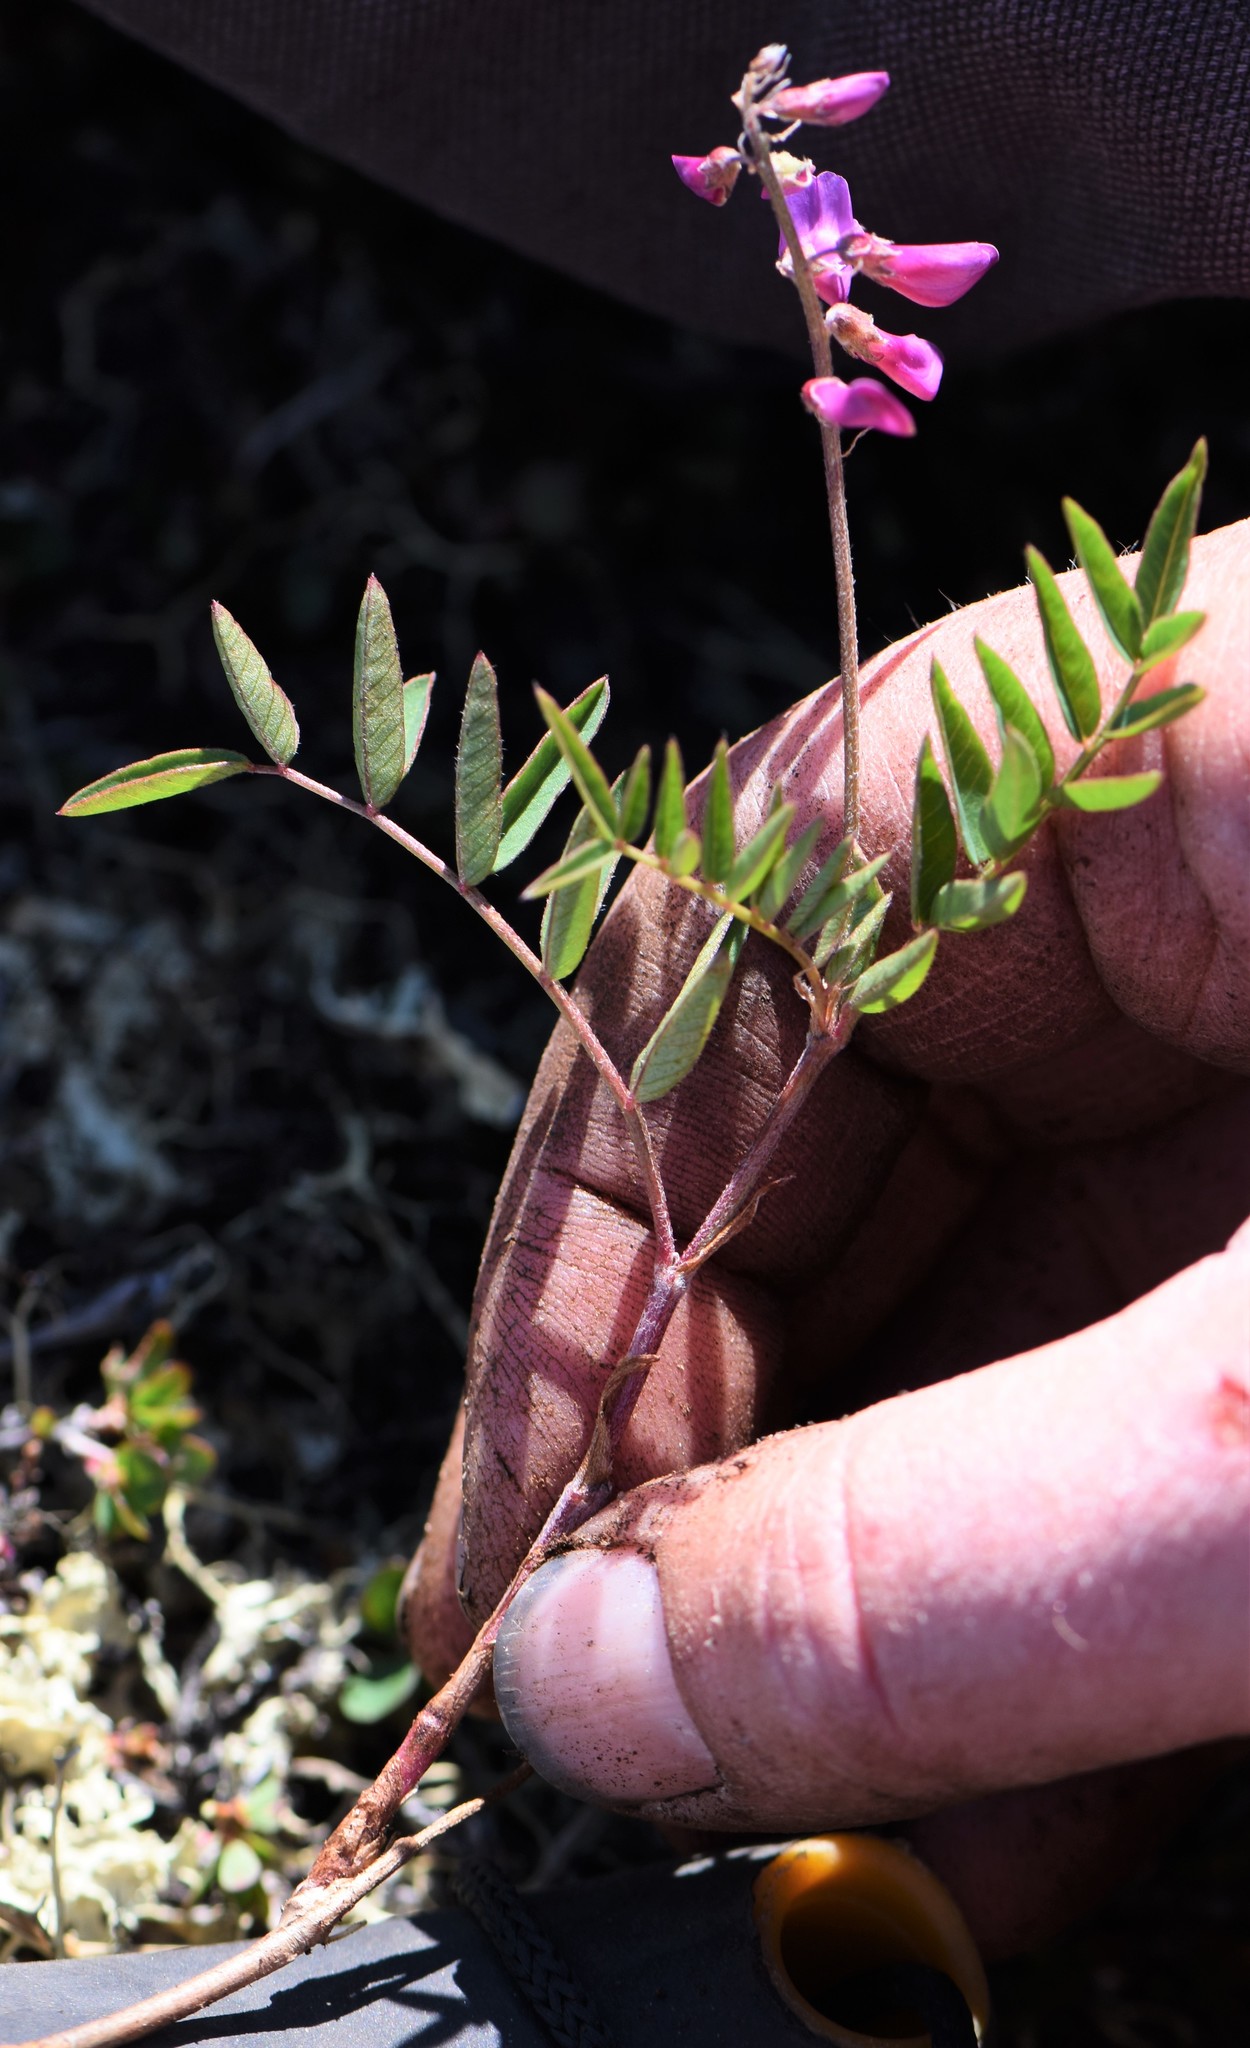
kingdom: Plantae
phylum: Tracheophyta
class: Magnoliopsida
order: Fabales
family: Fabaceae
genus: Hedysarum
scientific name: Hedysarum
